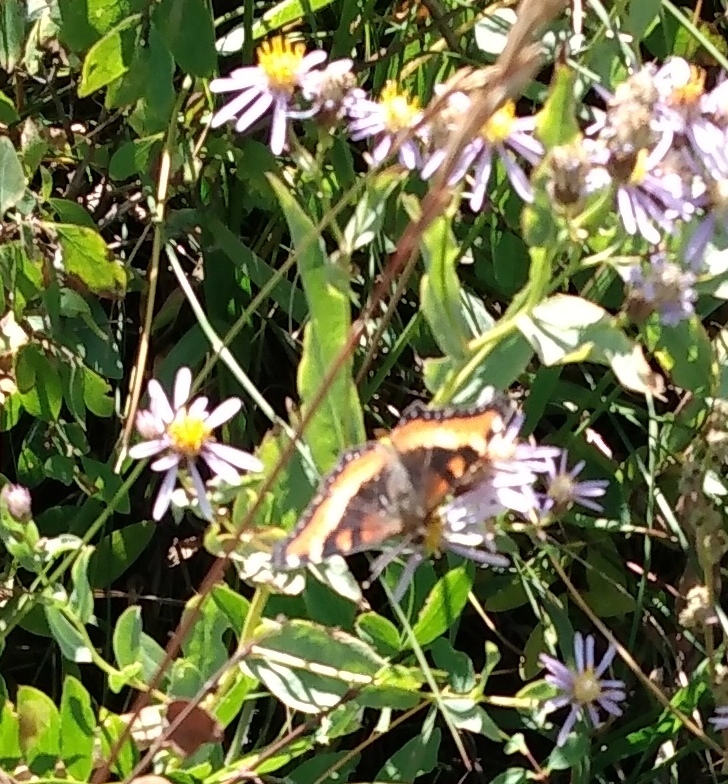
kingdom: Animalia
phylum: Arthropoda
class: Insecta
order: Lepidoptera
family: Nymphalidae
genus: Aglais
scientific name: Aglais milberti
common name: Milbert's tortoiseshell
